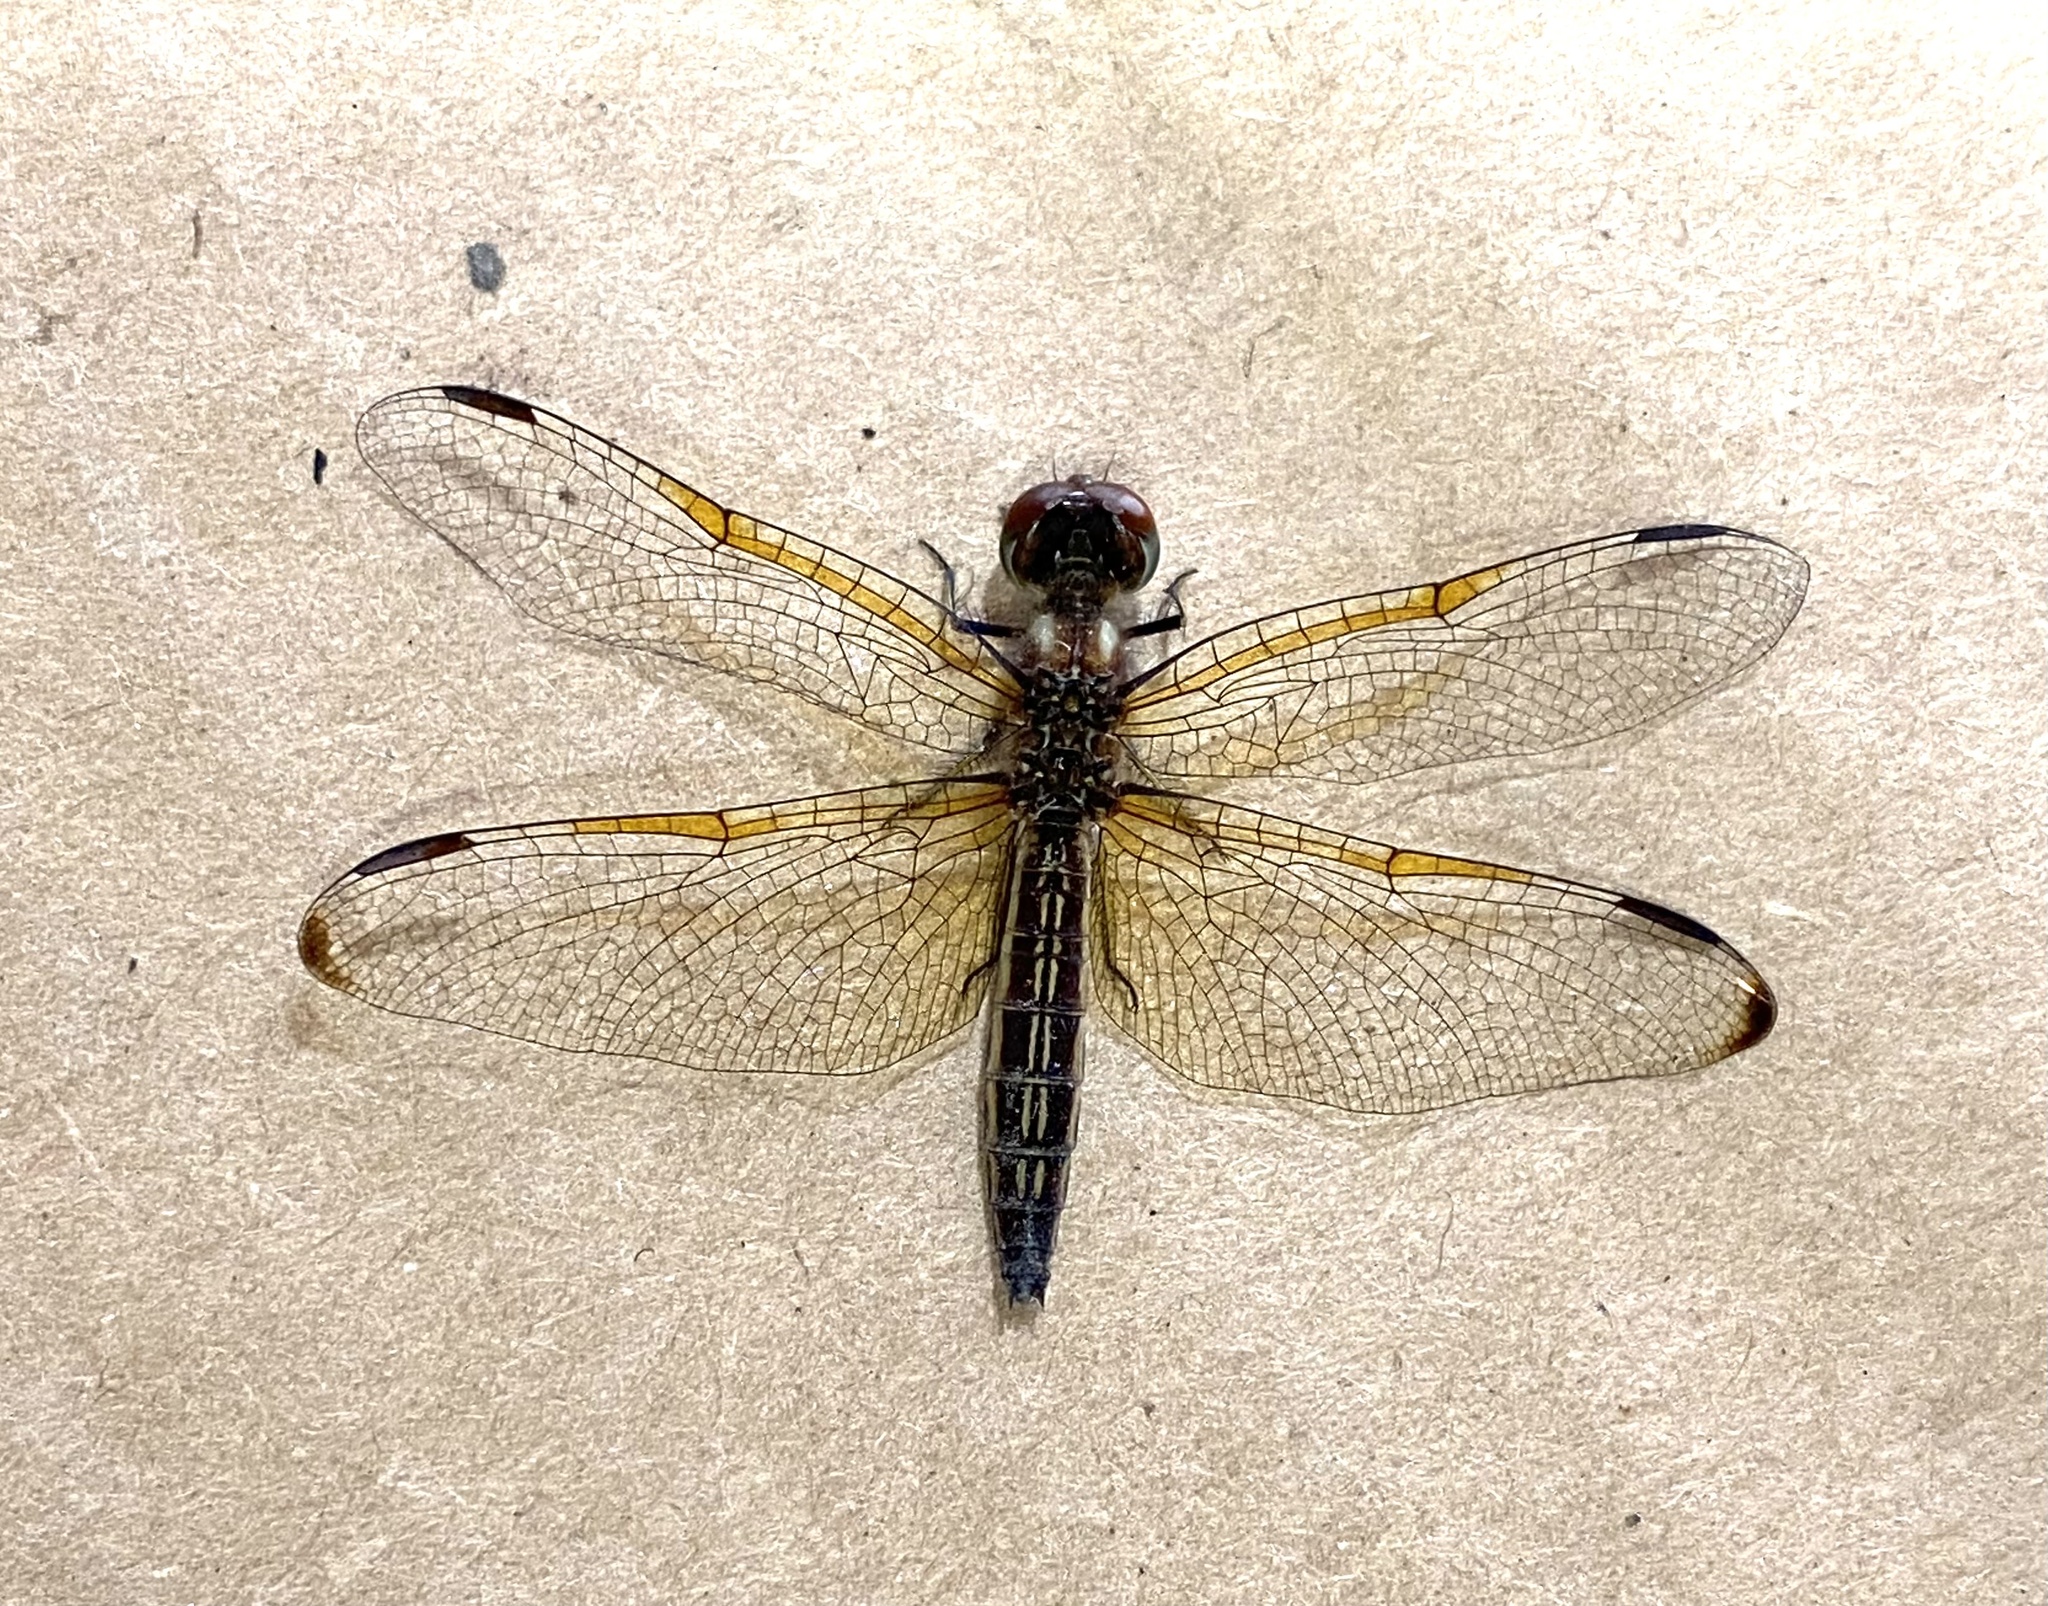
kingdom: Animalia
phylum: Arthropoda
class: Insecta
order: Odonata
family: Libellulidae
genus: Perithemis
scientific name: Perithemis domitia
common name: Slough amberwing
